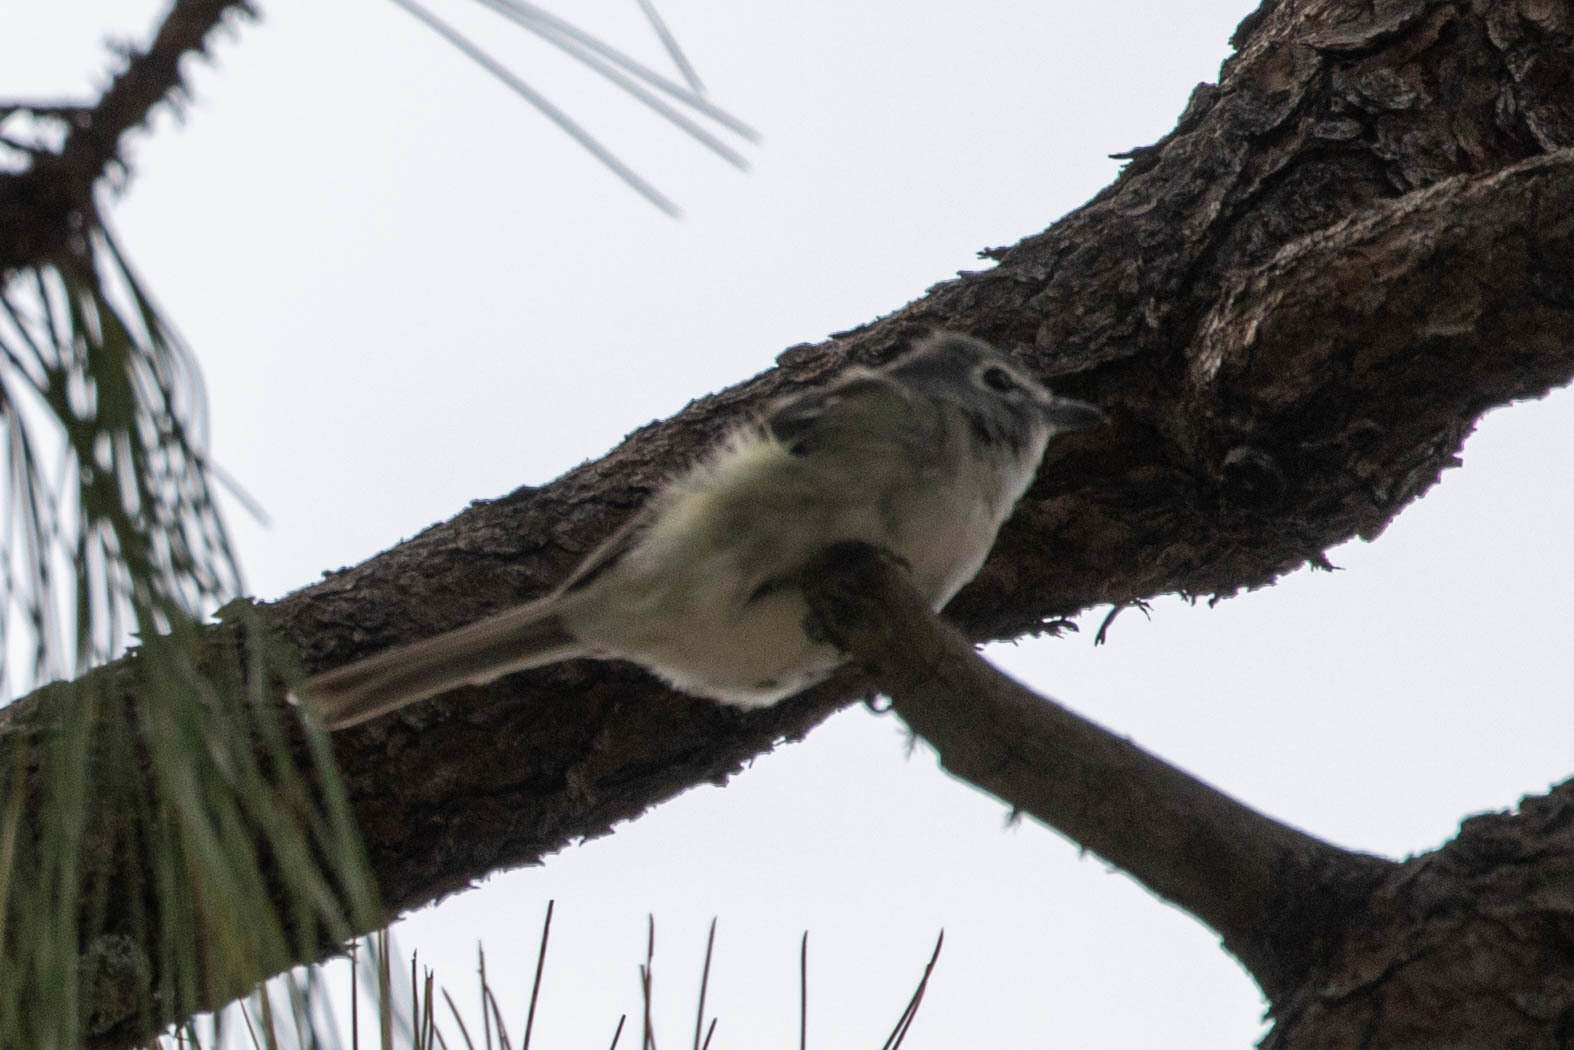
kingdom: Animalia
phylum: Chordata
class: Aves
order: Passeriformes
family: Vireonidae
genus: Vireo
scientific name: Vireo plumbeus
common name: Plumbeous vireo
